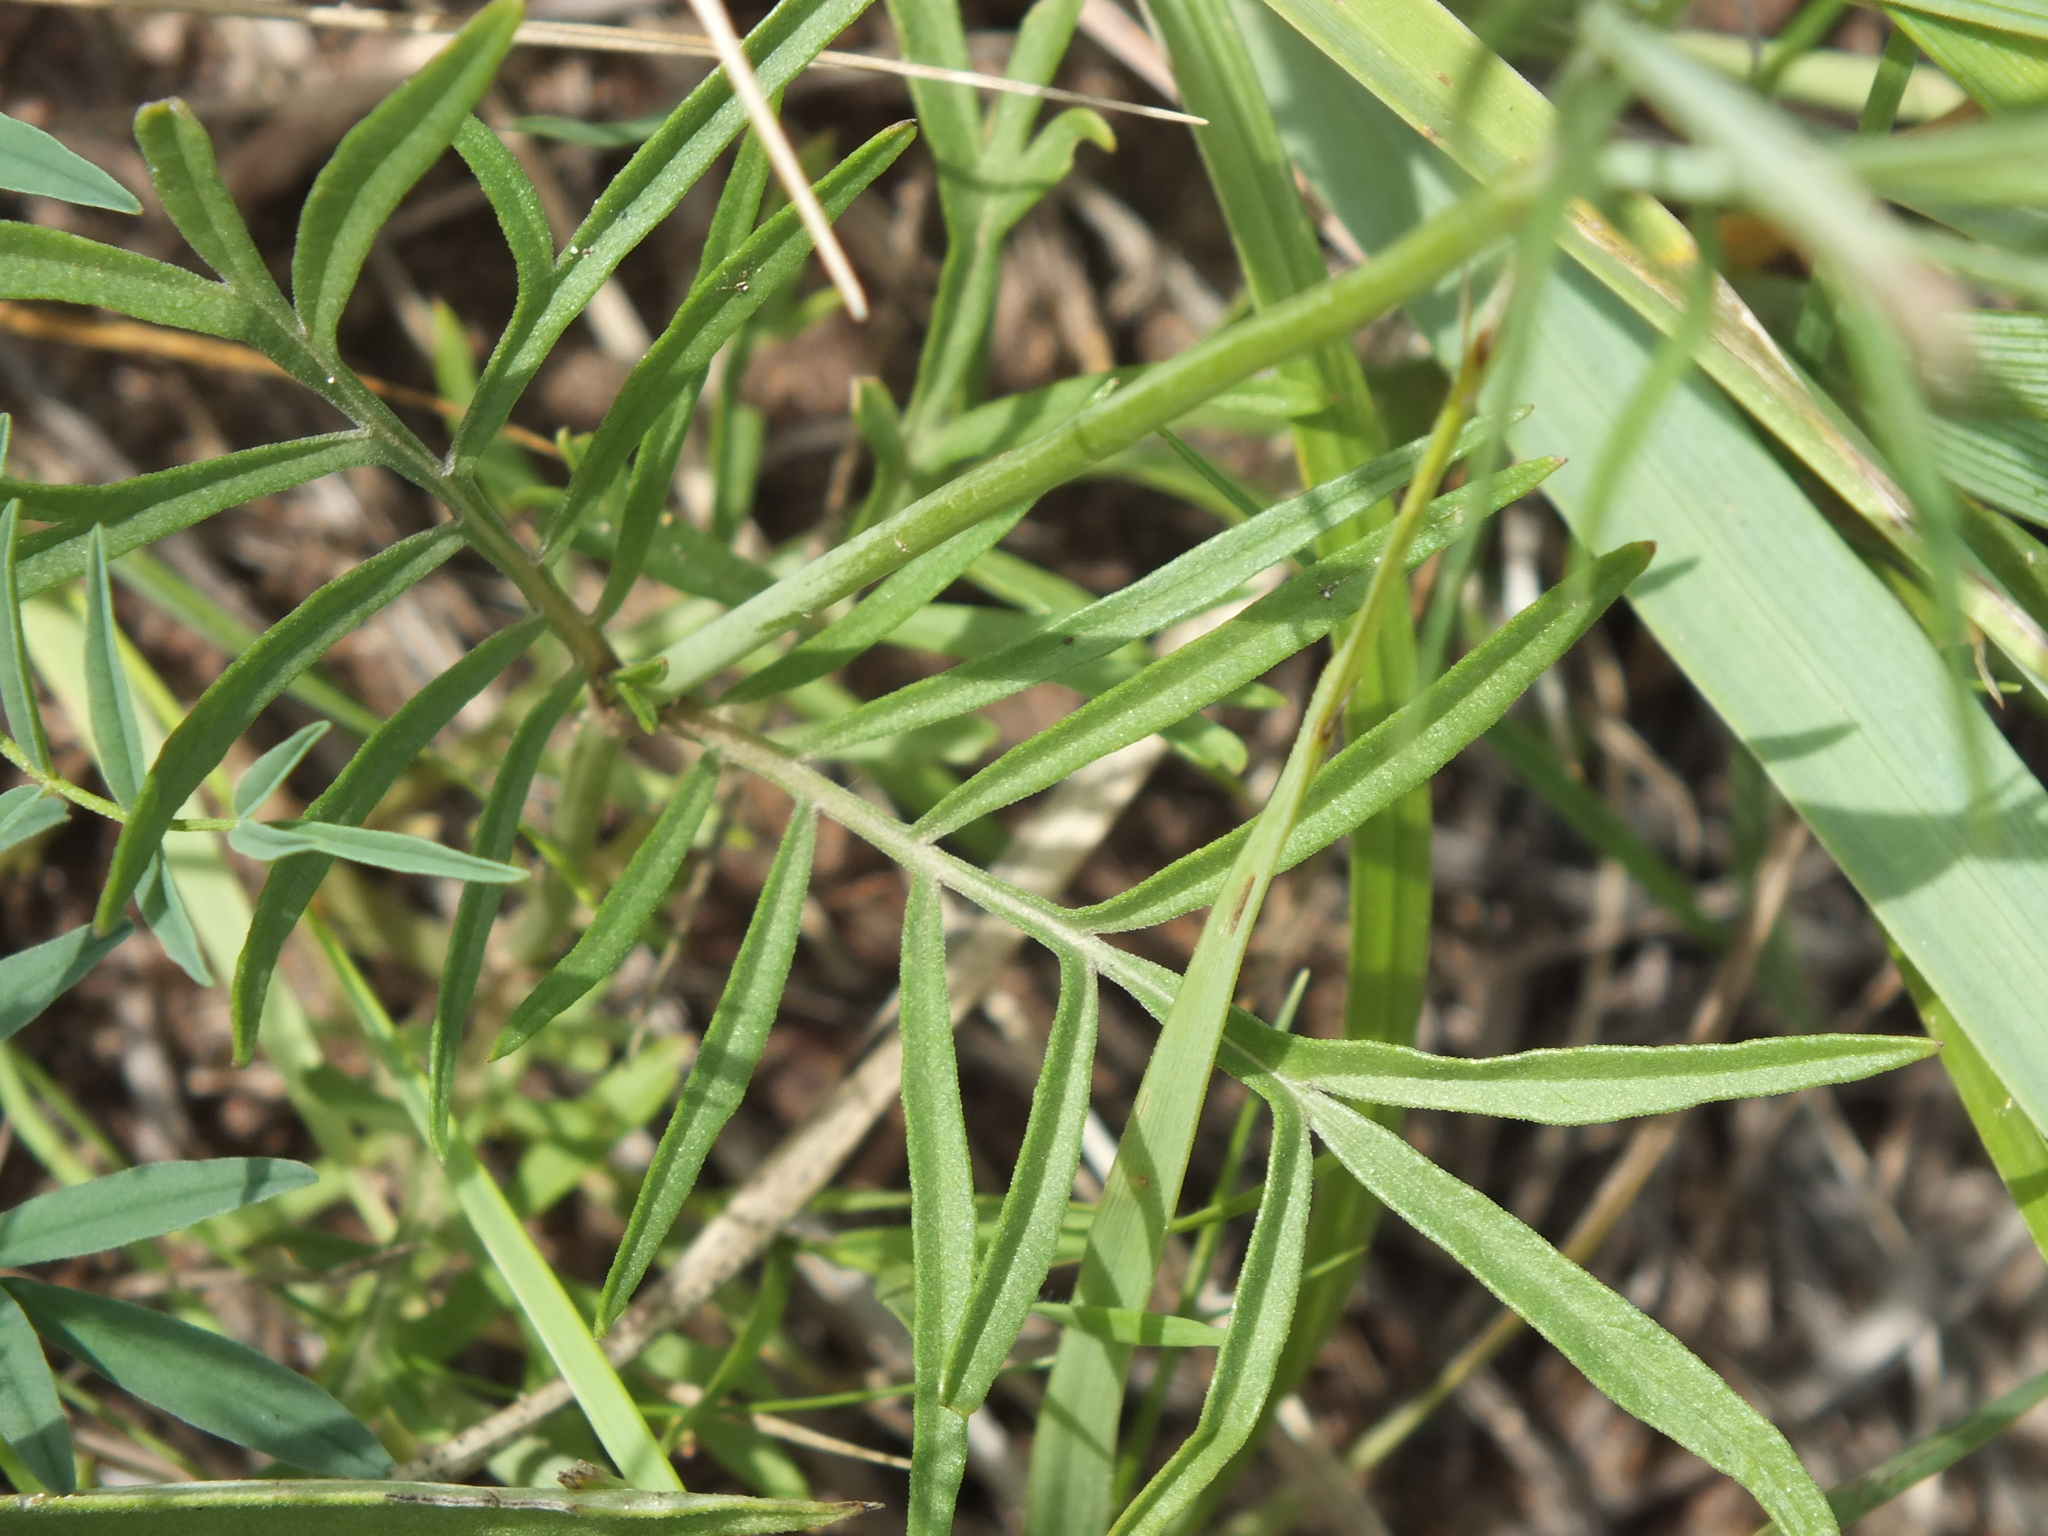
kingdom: Plantae
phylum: Tracheophyta
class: Magnoliopsida
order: Dipsacales
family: Caprifoliaceae
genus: Scabiosa
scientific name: Scabiosa ochroleuca
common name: Cream pincushions
